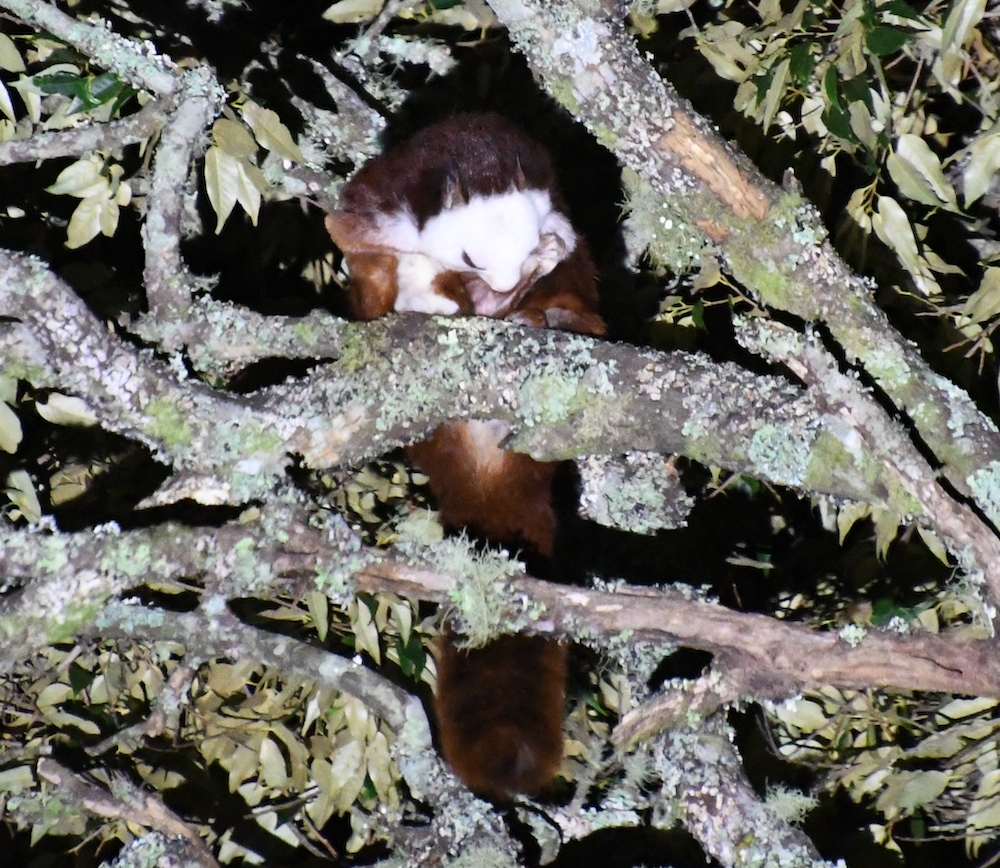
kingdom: Animalia
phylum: Chordata
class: Mammalia
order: Rodentia
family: Sciuridae
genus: Petaurista
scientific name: Petaurista lena
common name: Taiwan giant flying squirrel
